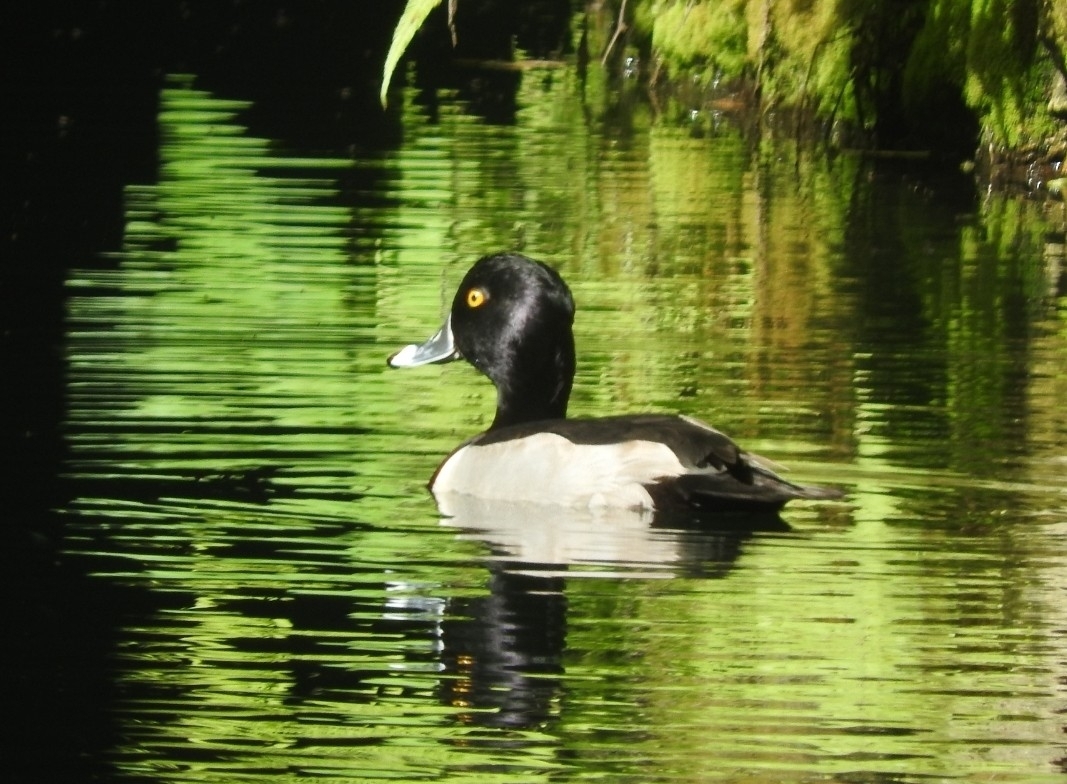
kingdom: Animalia
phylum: Chordata
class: Aves
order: Anseriformes
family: Anatidae
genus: Aythya
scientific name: Aythya collaris
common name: Ring-necked duck
